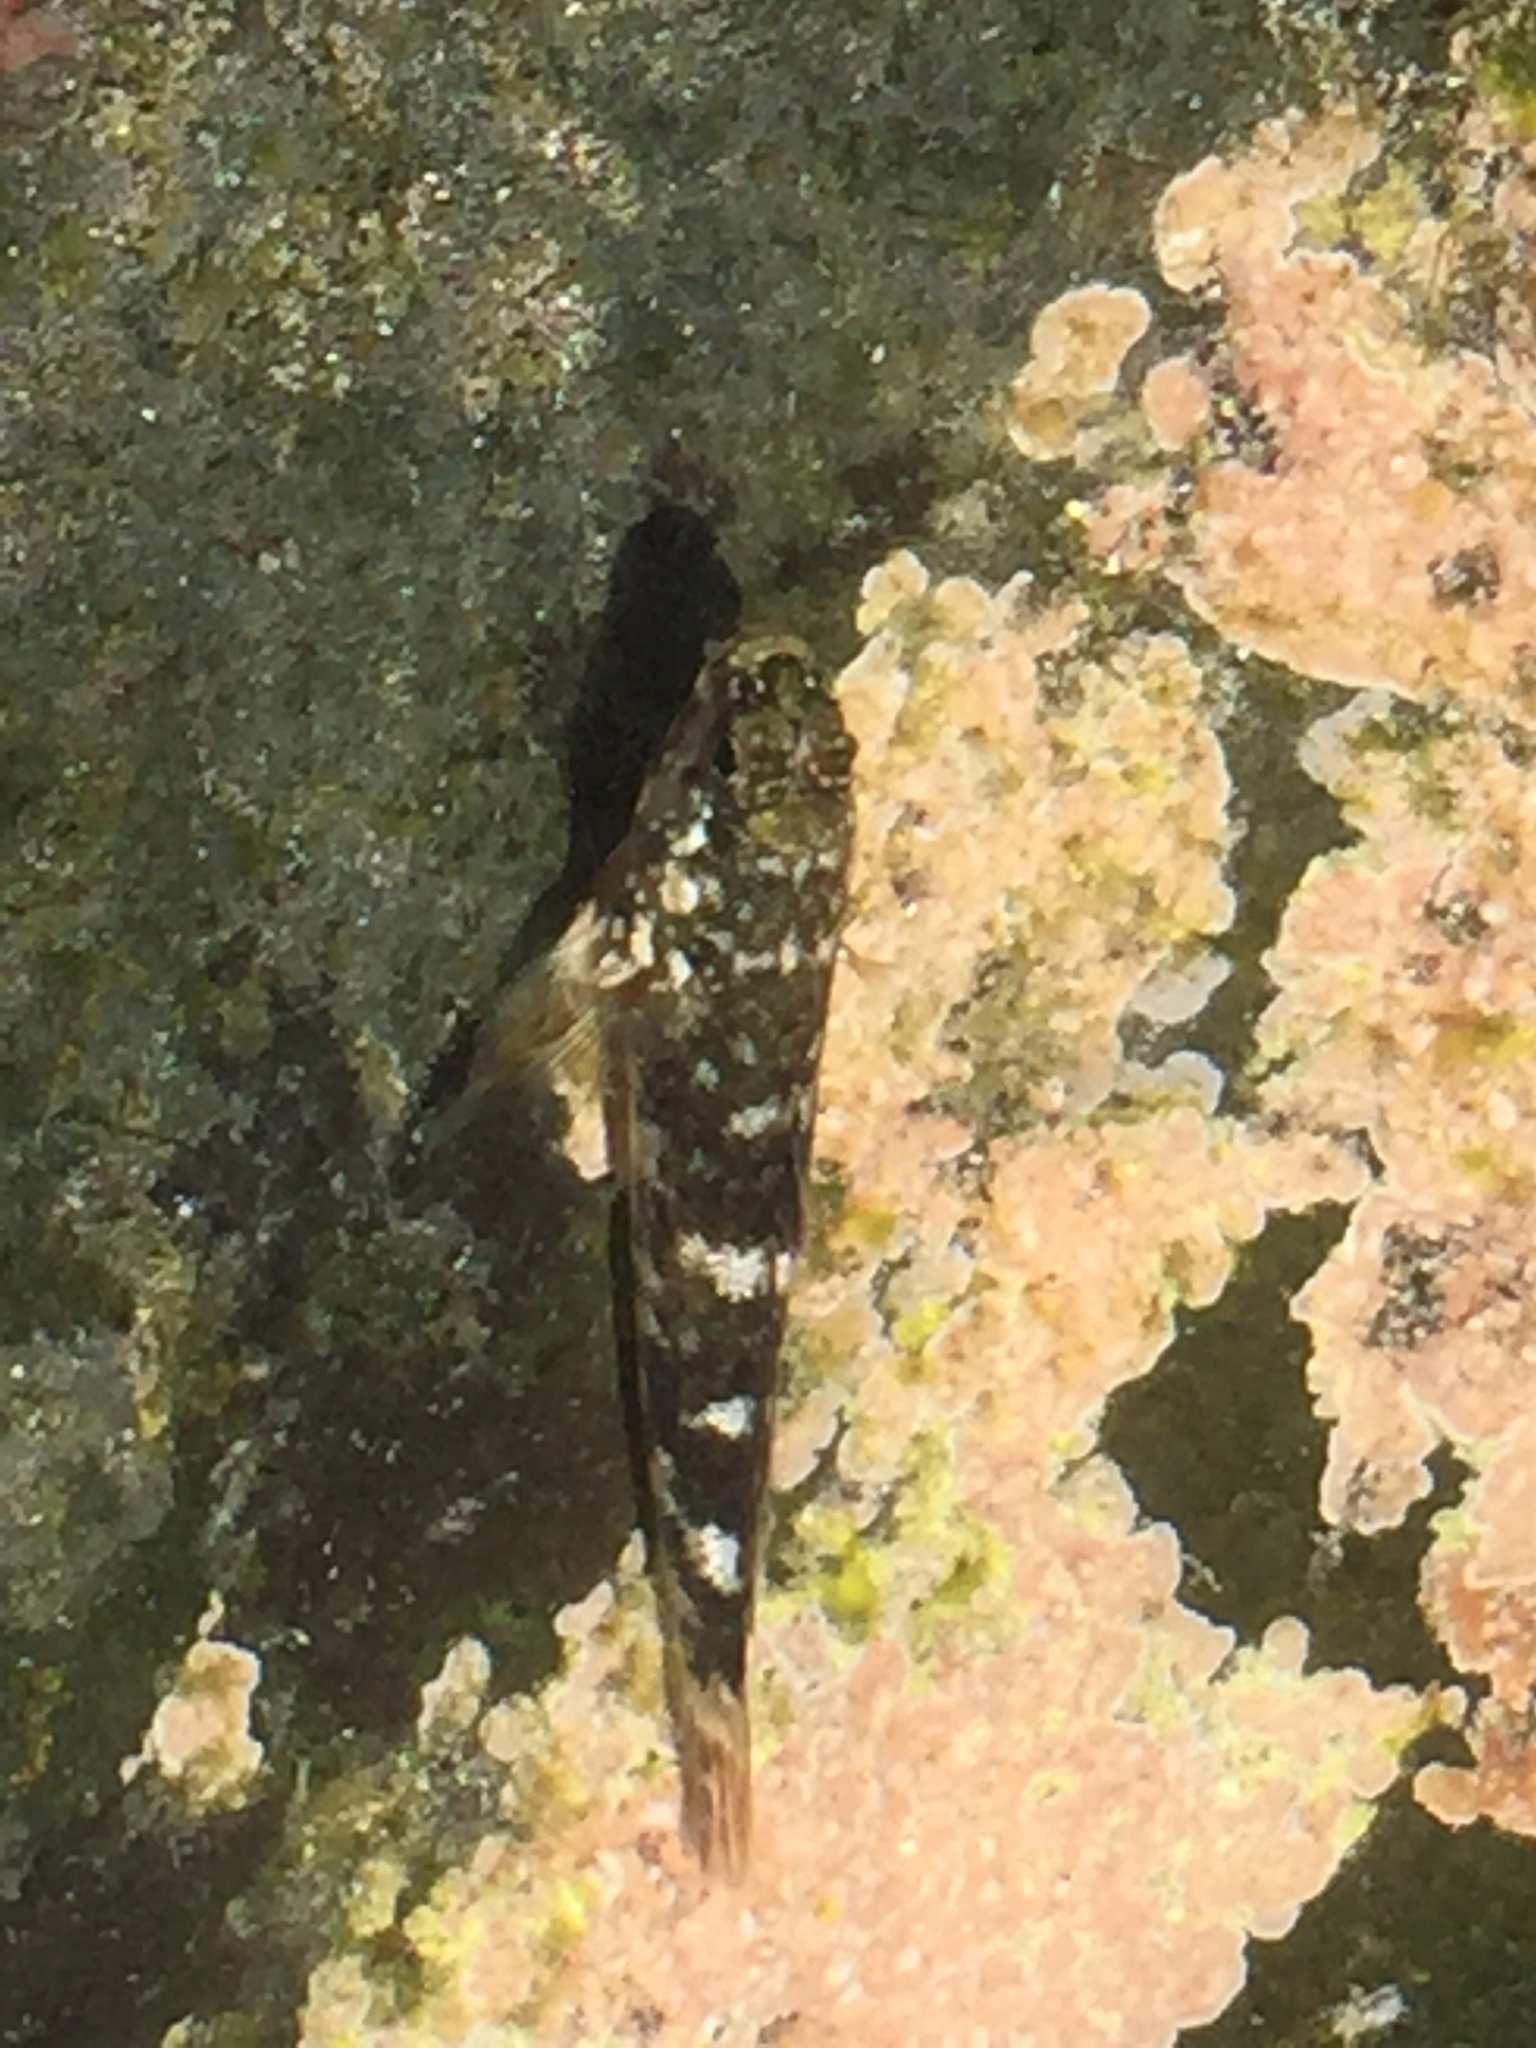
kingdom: Animalia
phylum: Chordata
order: Perciformes
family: Gobiidae
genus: Mauligobius
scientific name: Mauligobius maderensis
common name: Rock goby
